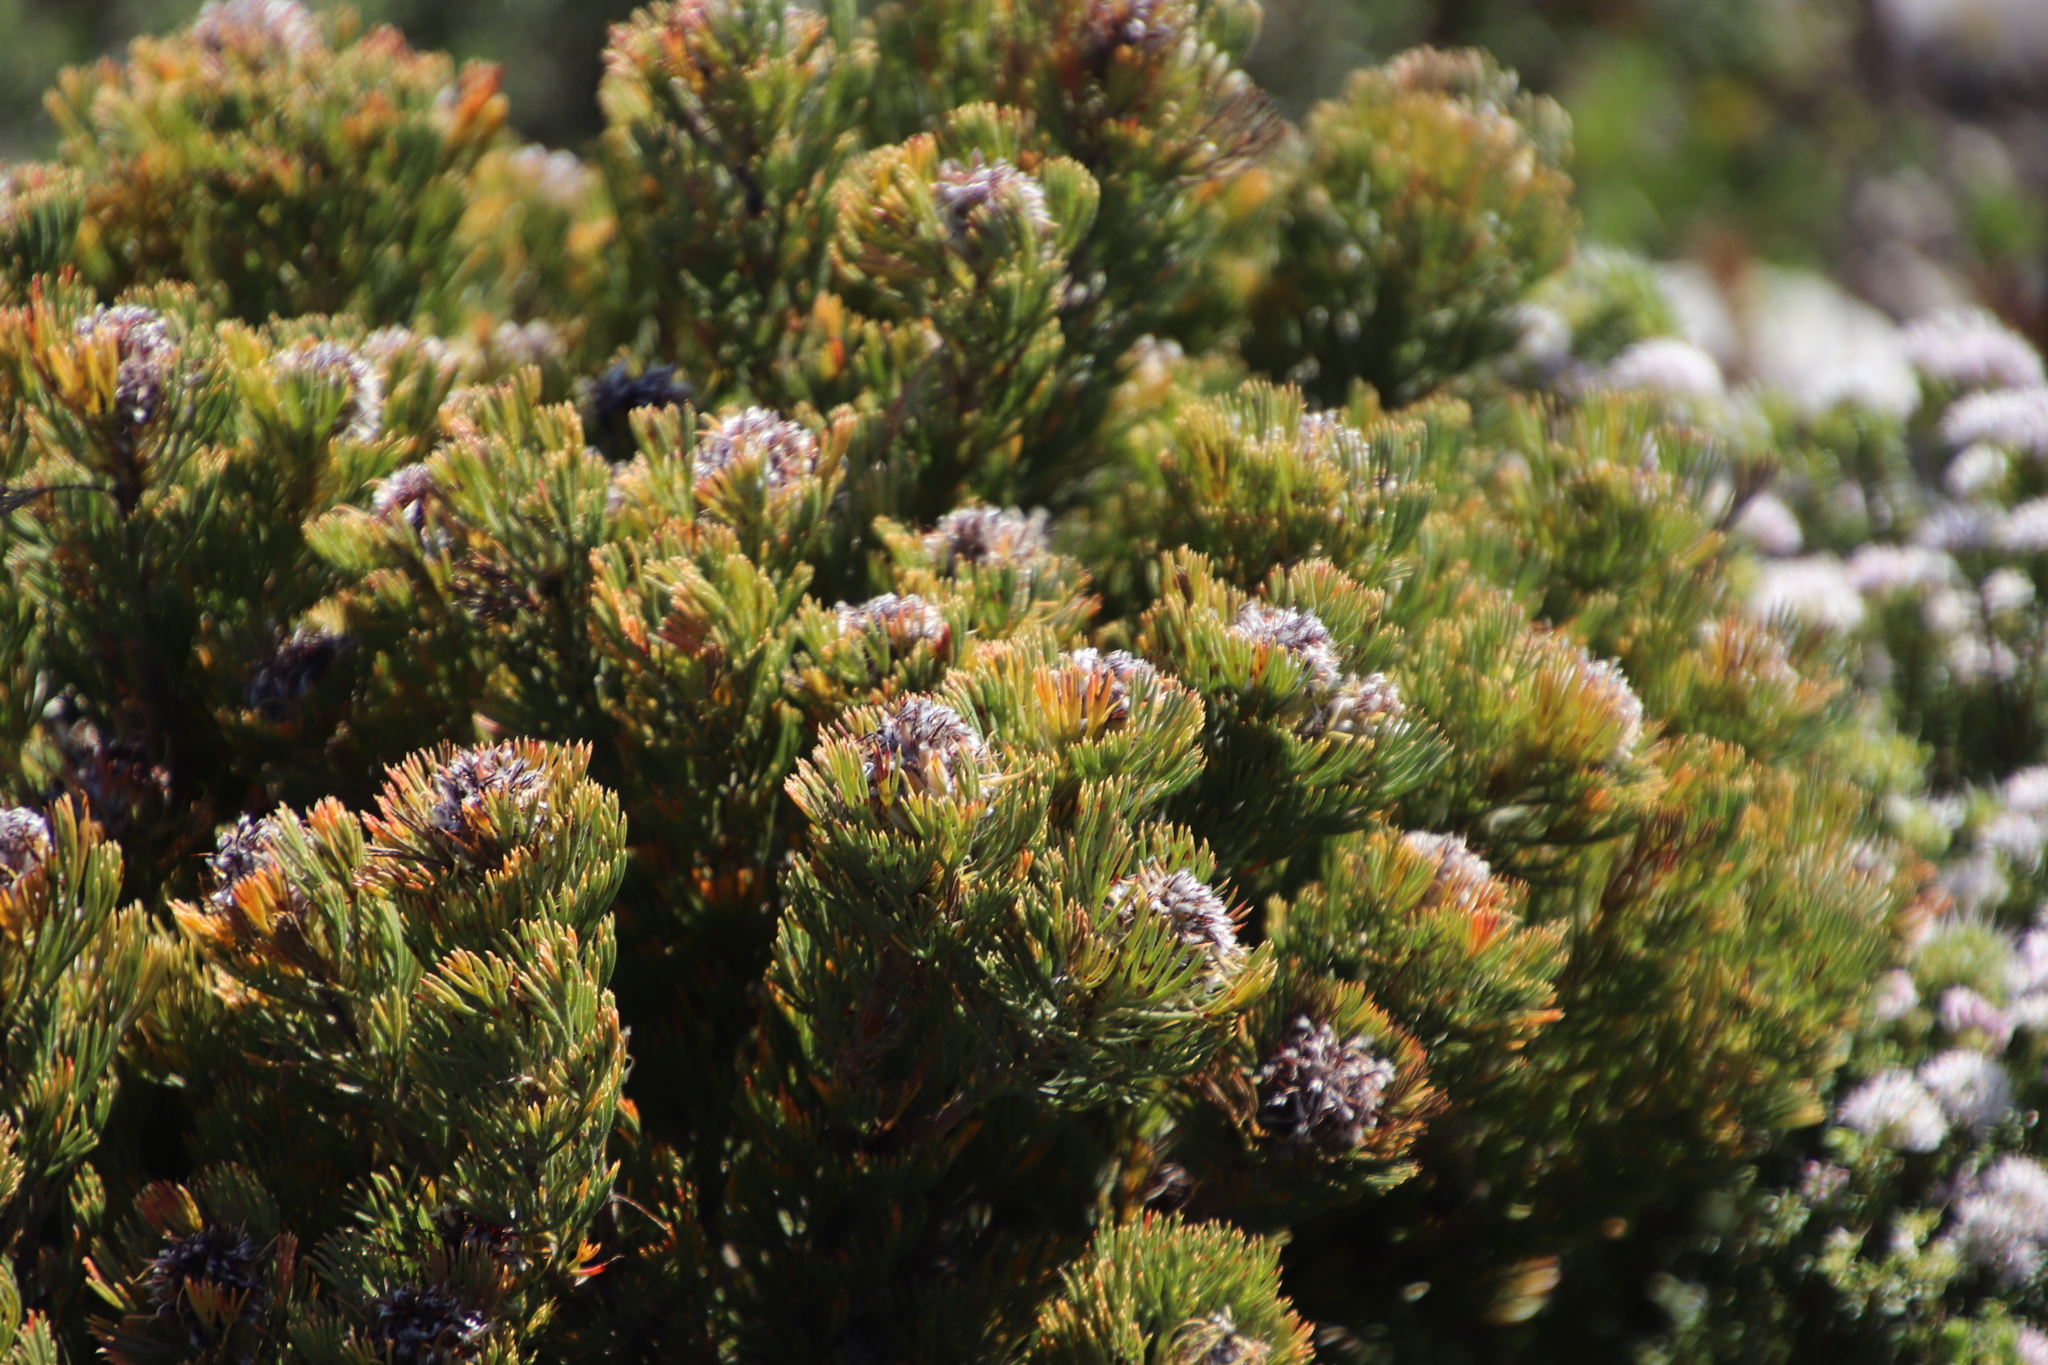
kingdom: Plantae
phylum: Tracheophyta
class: Magnoliopsida
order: Proteales
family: Proteaceae
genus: Serruria
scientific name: Serruria villosa
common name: Golden spiderhead
